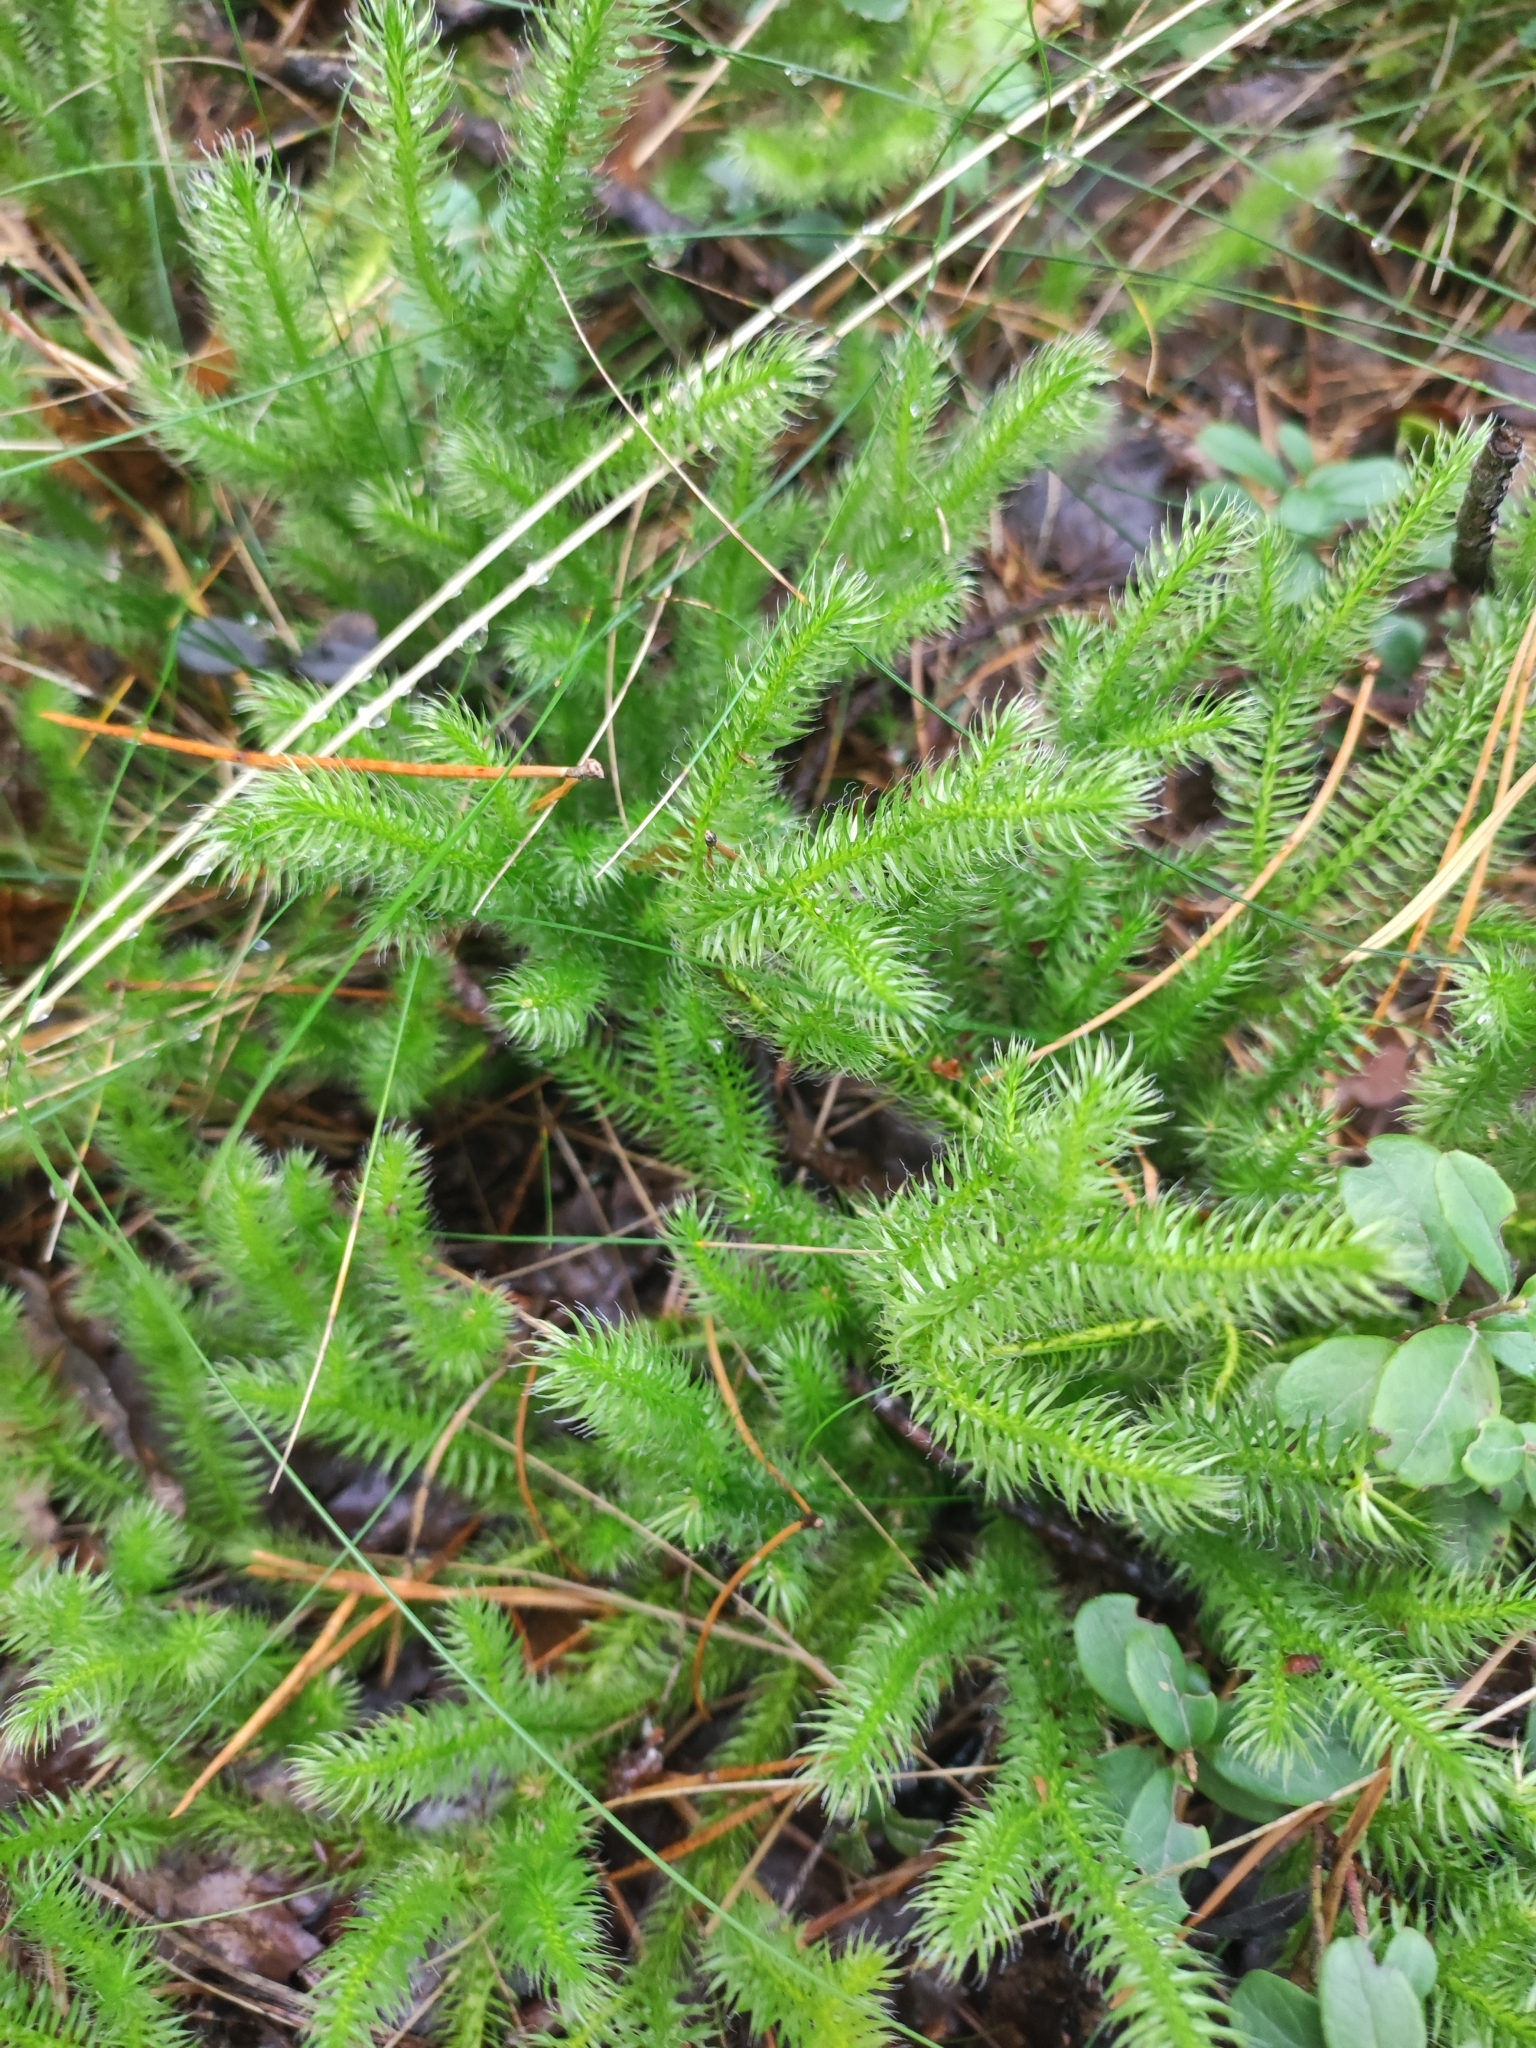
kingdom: Plantae
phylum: Tracheophyta
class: Lycopodiopsida
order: Lycopodiales
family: Lycopodiaceae
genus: Lycopodium
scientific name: Lycopodium clavatum
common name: Stag's-horn clubmoss
